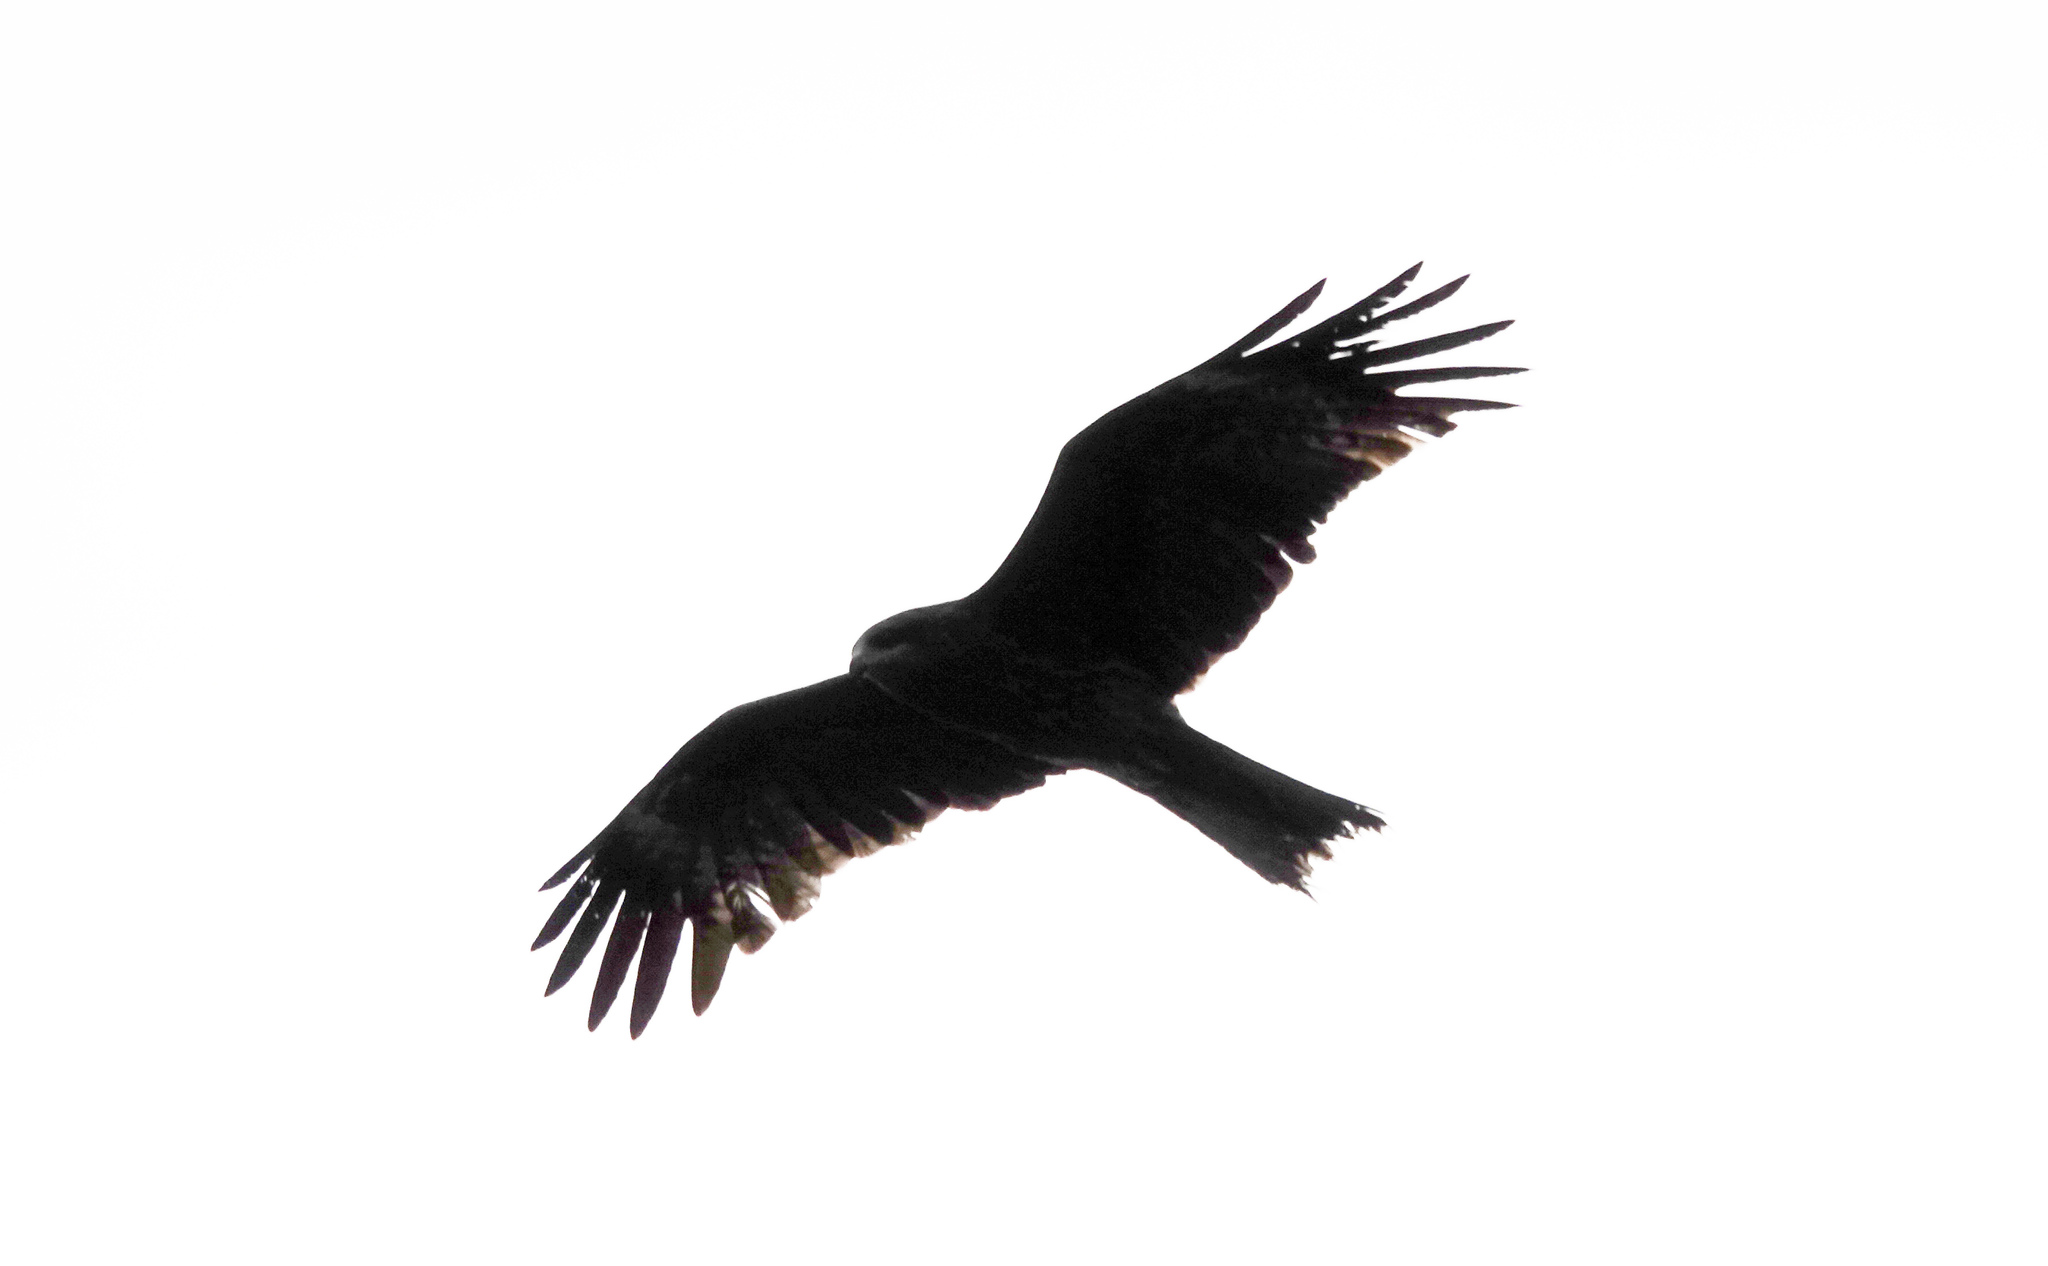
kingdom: Animalia
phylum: Chordata
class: Aves
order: Accipitriformes
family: Accipitridae
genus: Milvus
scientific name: Milvus migrans
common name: Black kite
